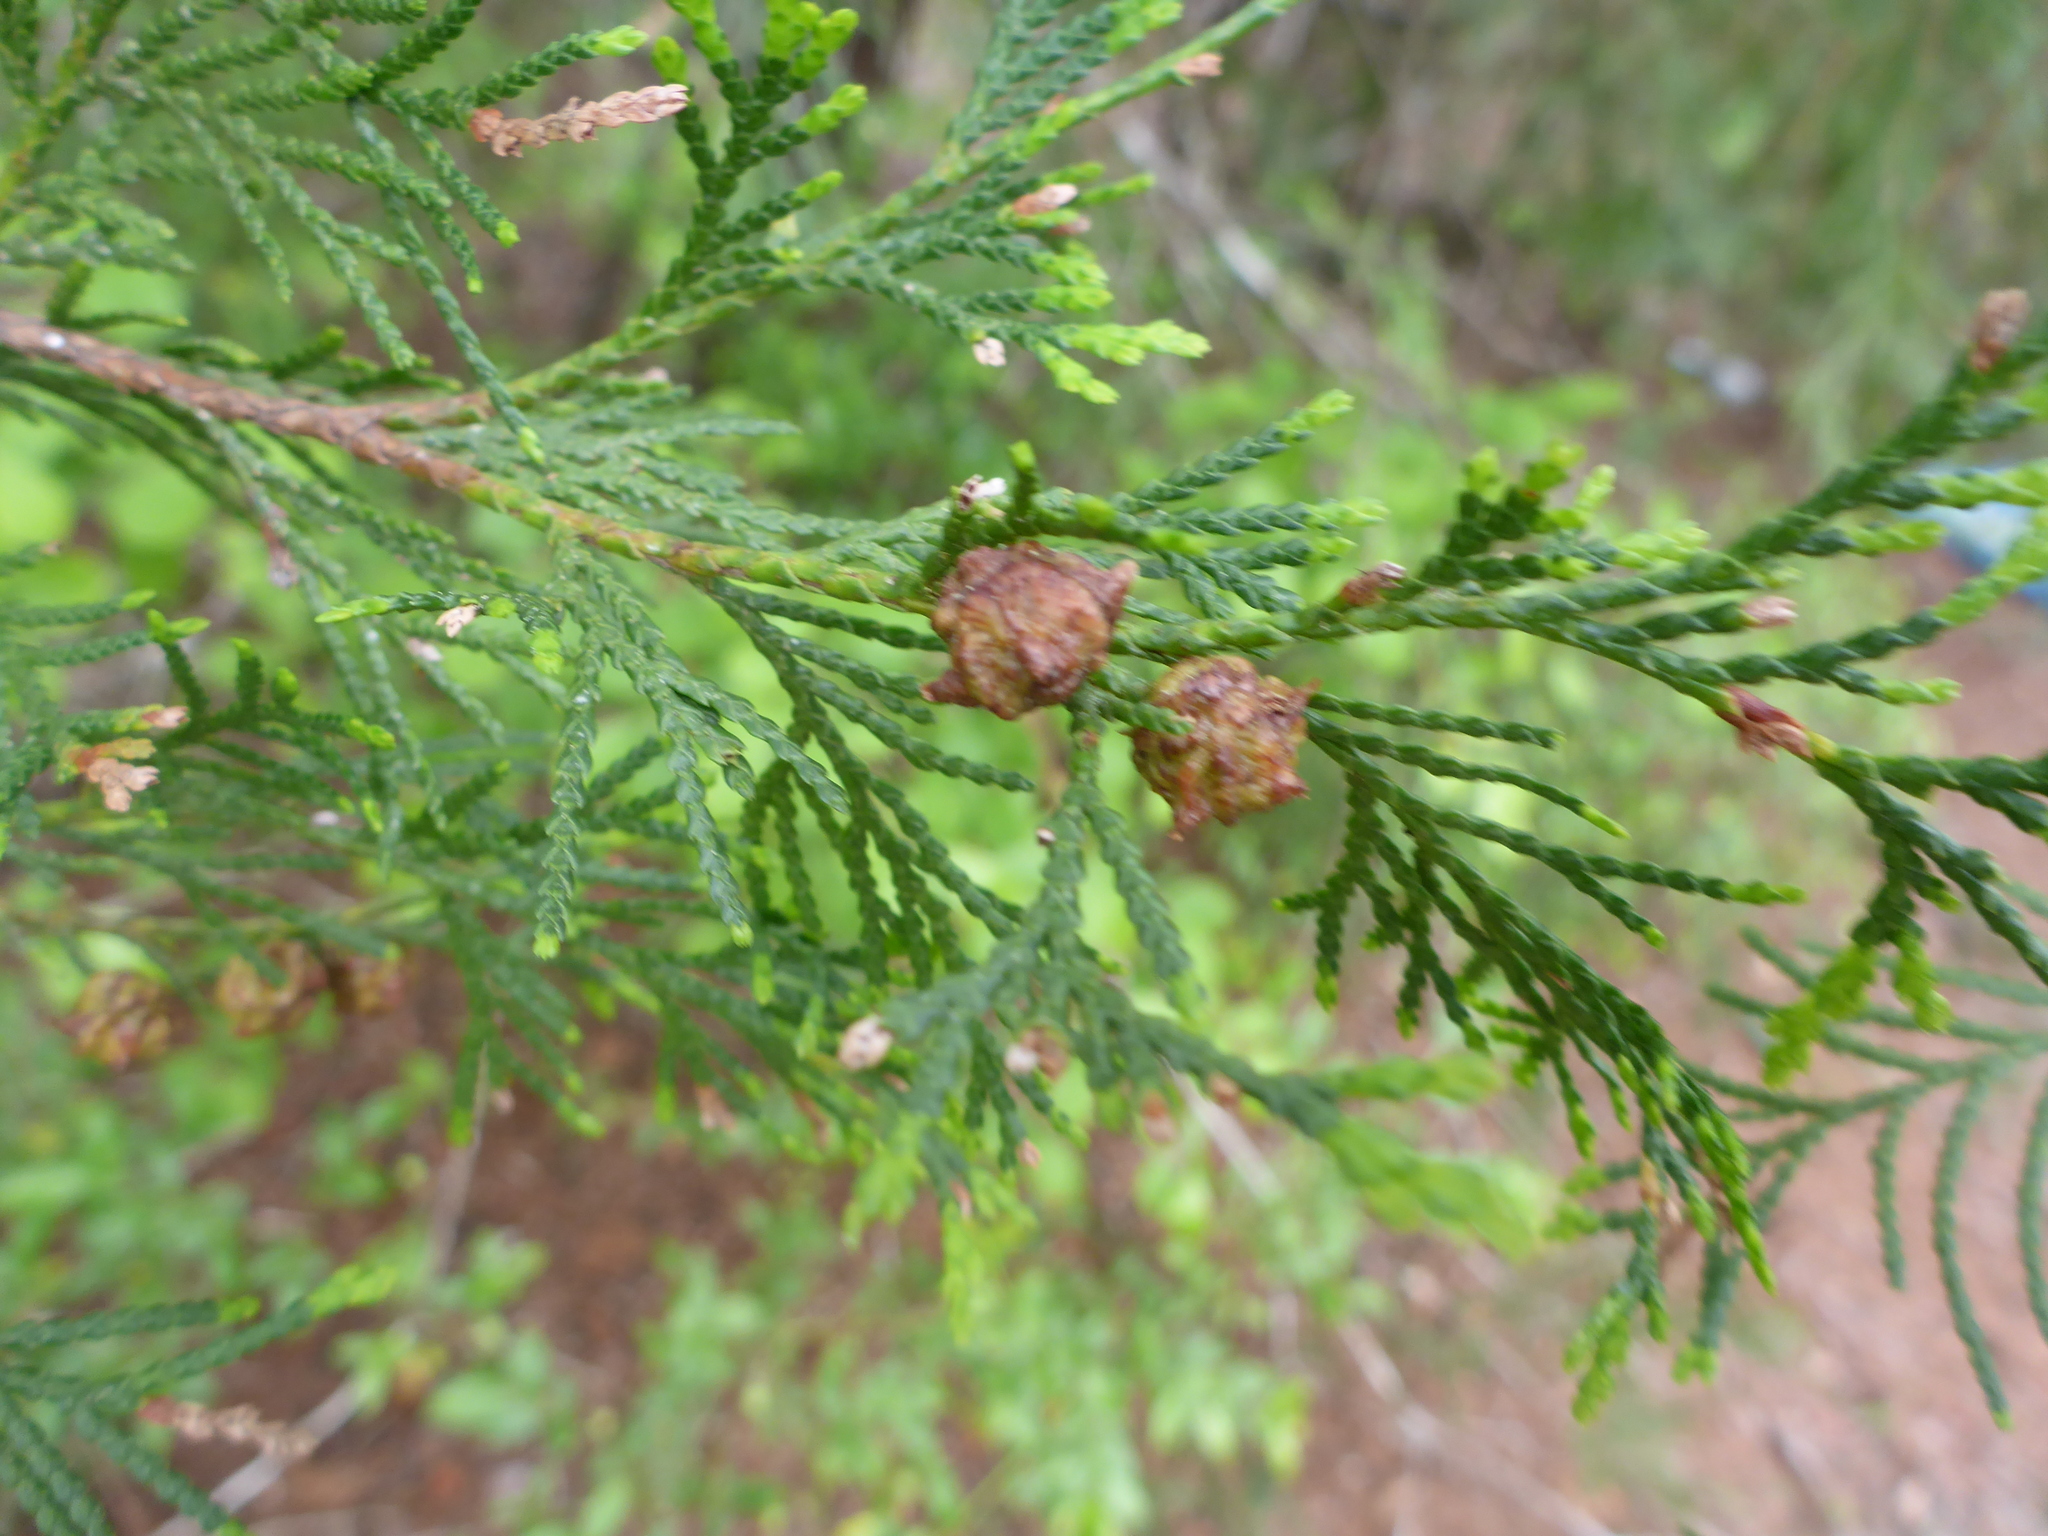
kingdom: Plantae
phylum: Tracheophyta
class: Pinopsida
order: Pinales
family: Cupressaceae
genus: Chamaecyparis
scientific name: Chamaecyparis thyoides
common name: Atlantic white cedar
